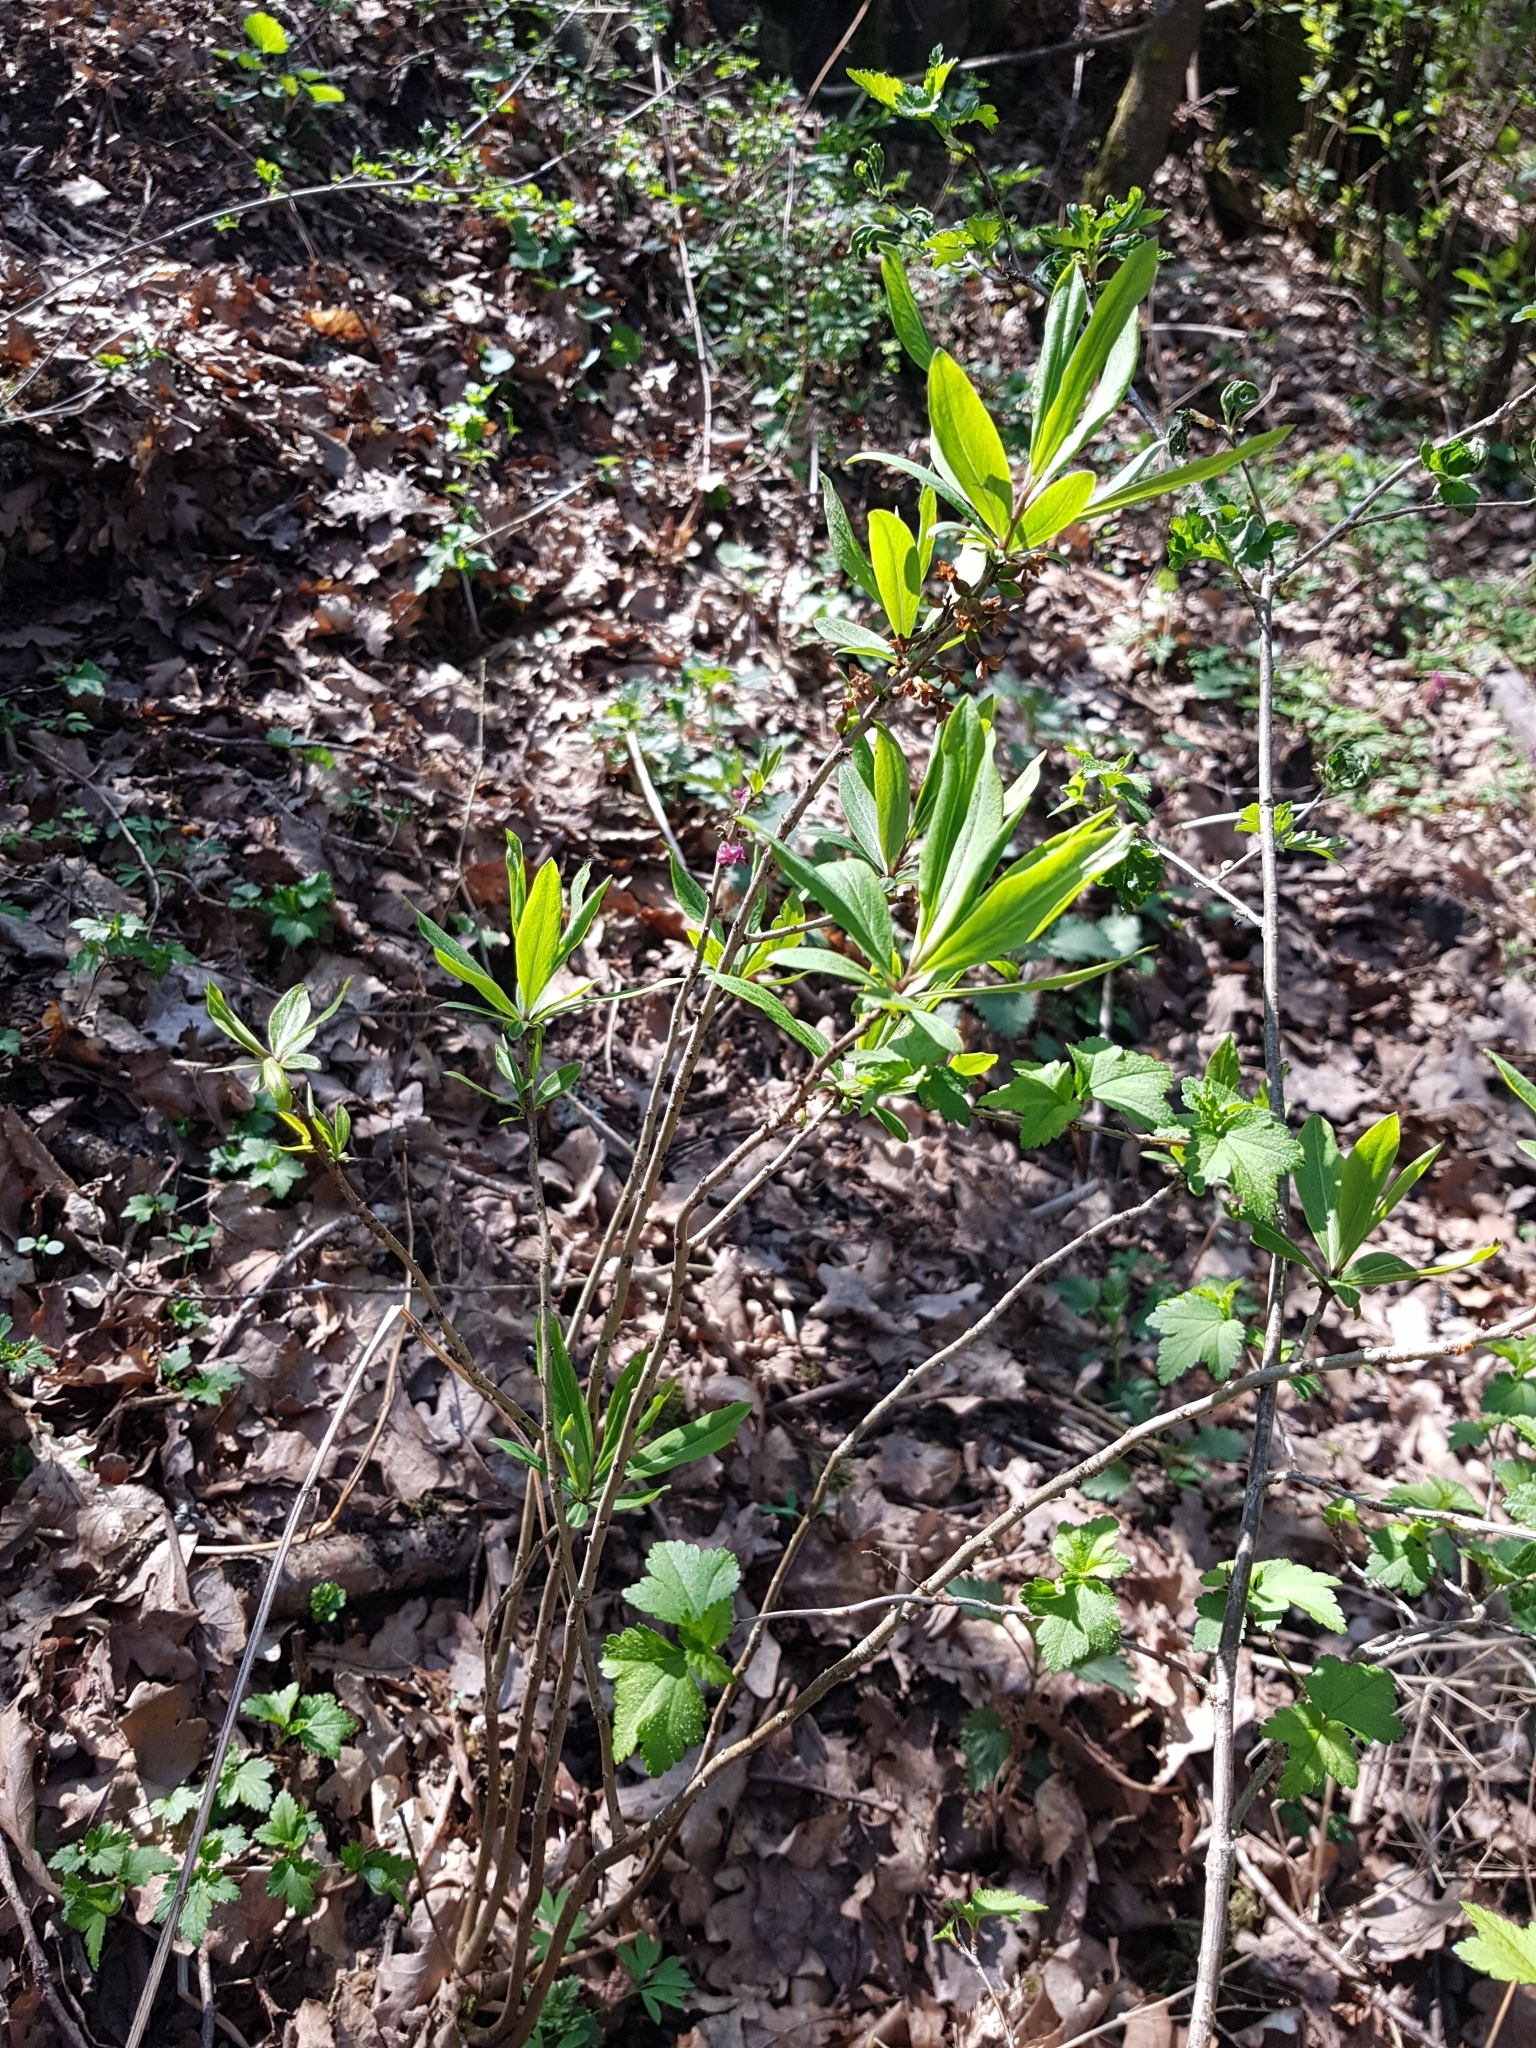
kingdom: Plantae
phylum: Tracheophyta
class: Magnoliopsida
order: Malvales
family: Thymelaeaceae
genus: Daphne
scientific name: Daphne mezereum
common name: Mezereon
